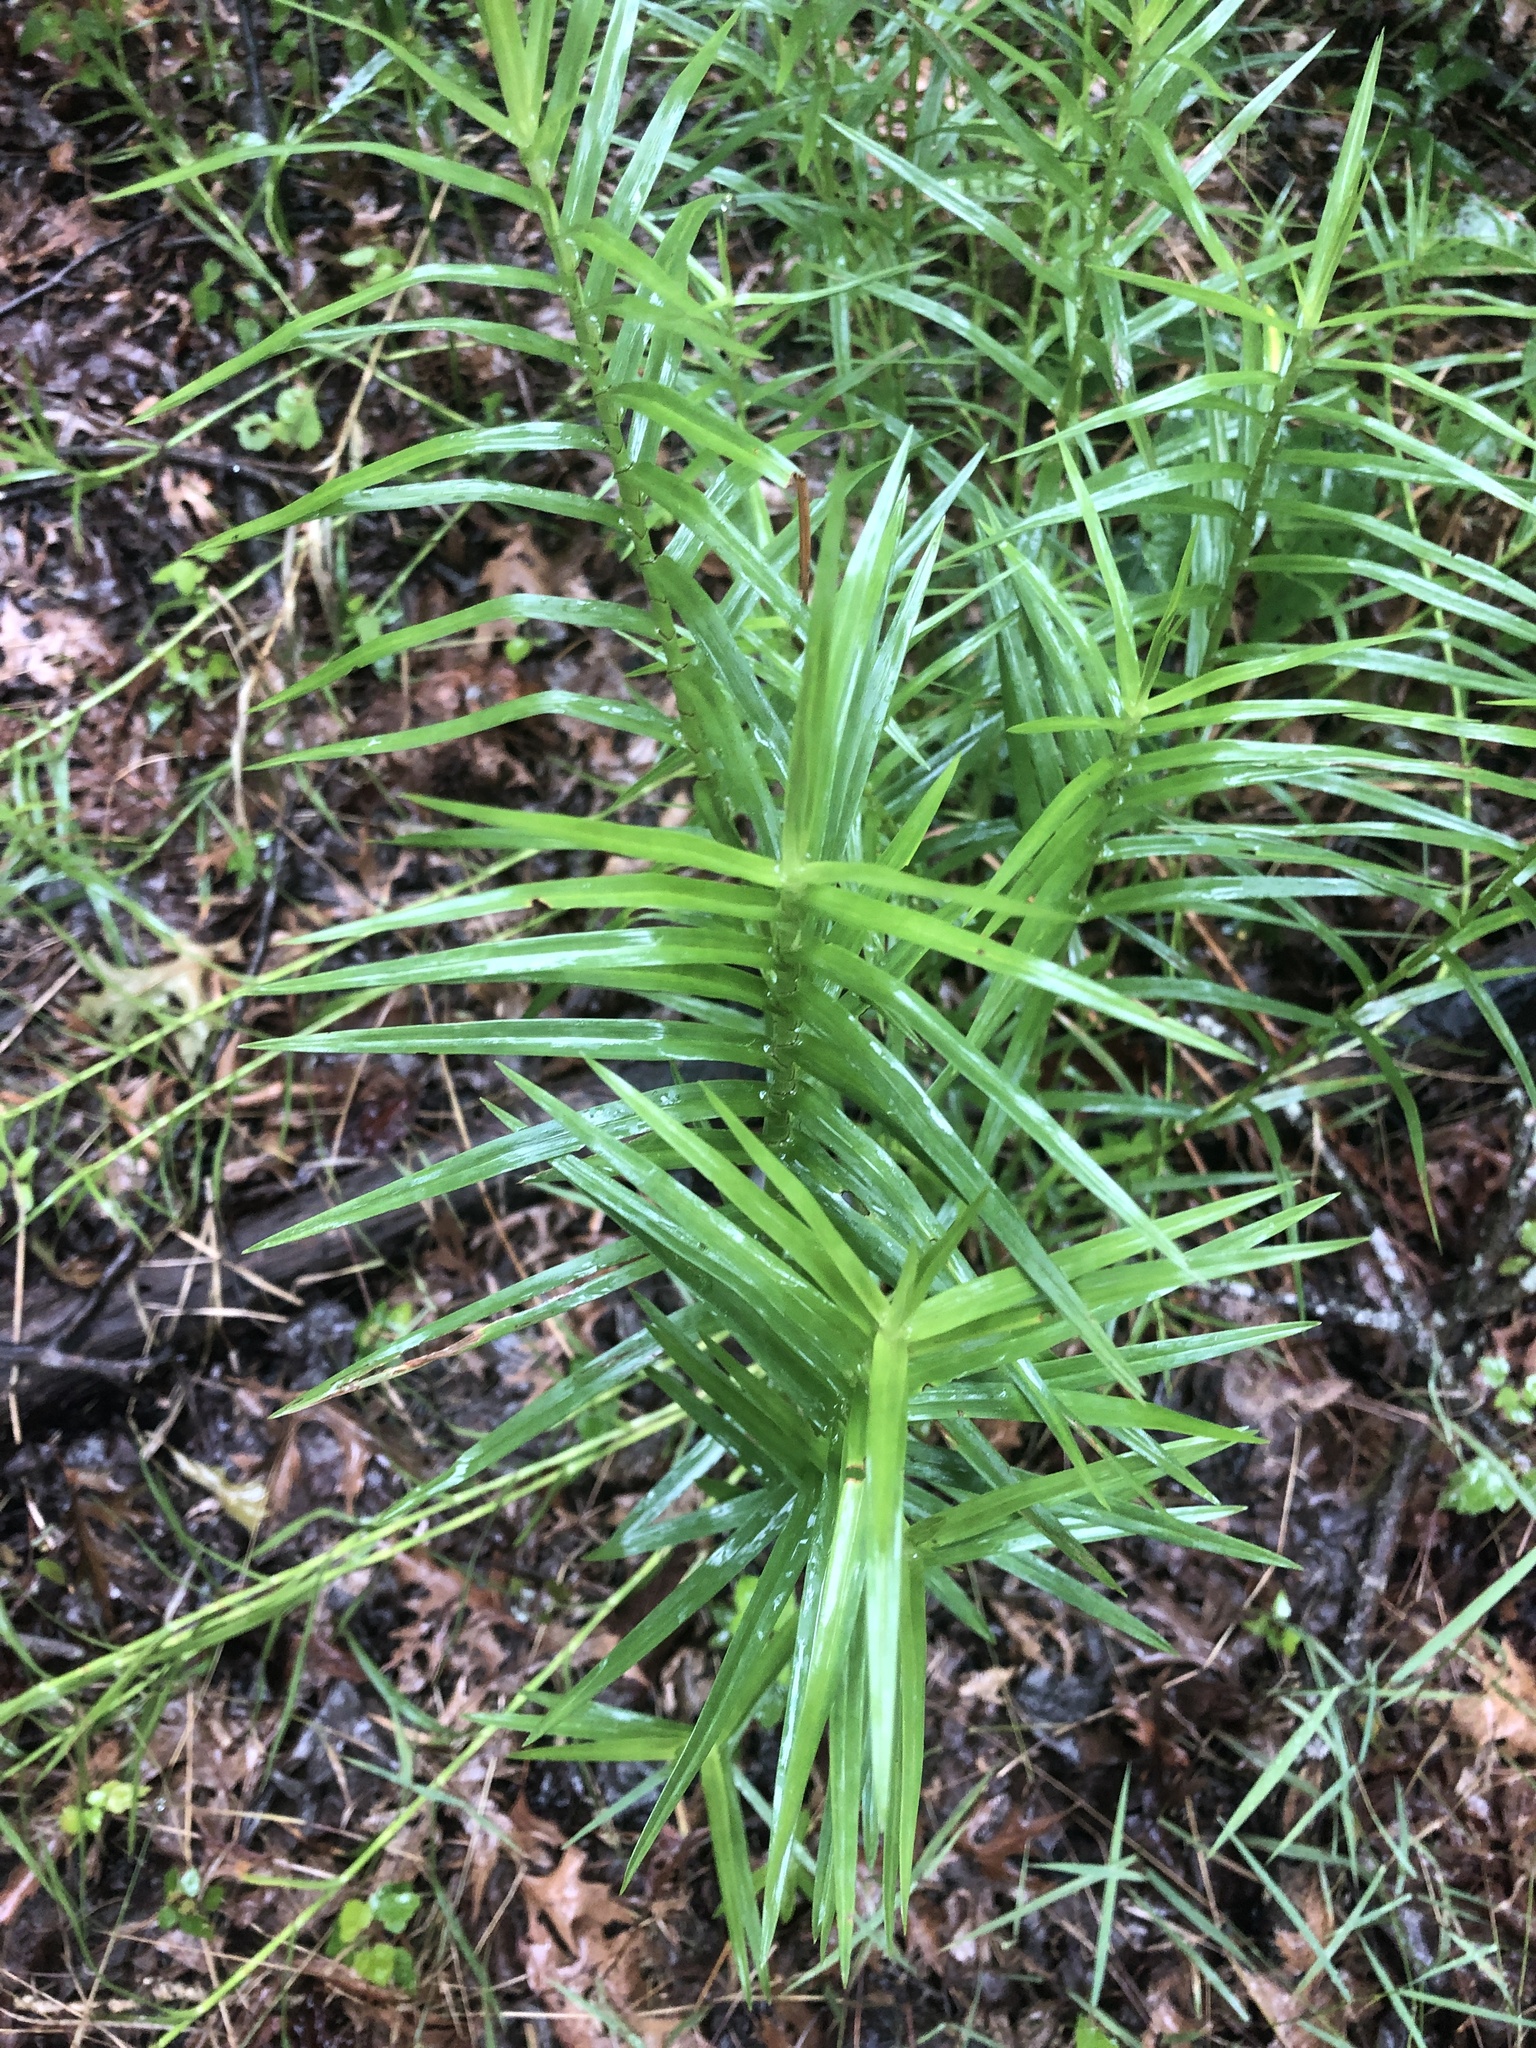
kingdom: Plantae
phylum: Tracheophyta
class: Liliopsida
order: Poales
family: Cyperaceae
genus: Dulichium
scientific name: Dulichium arundinaceum
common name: Three-way sedge
